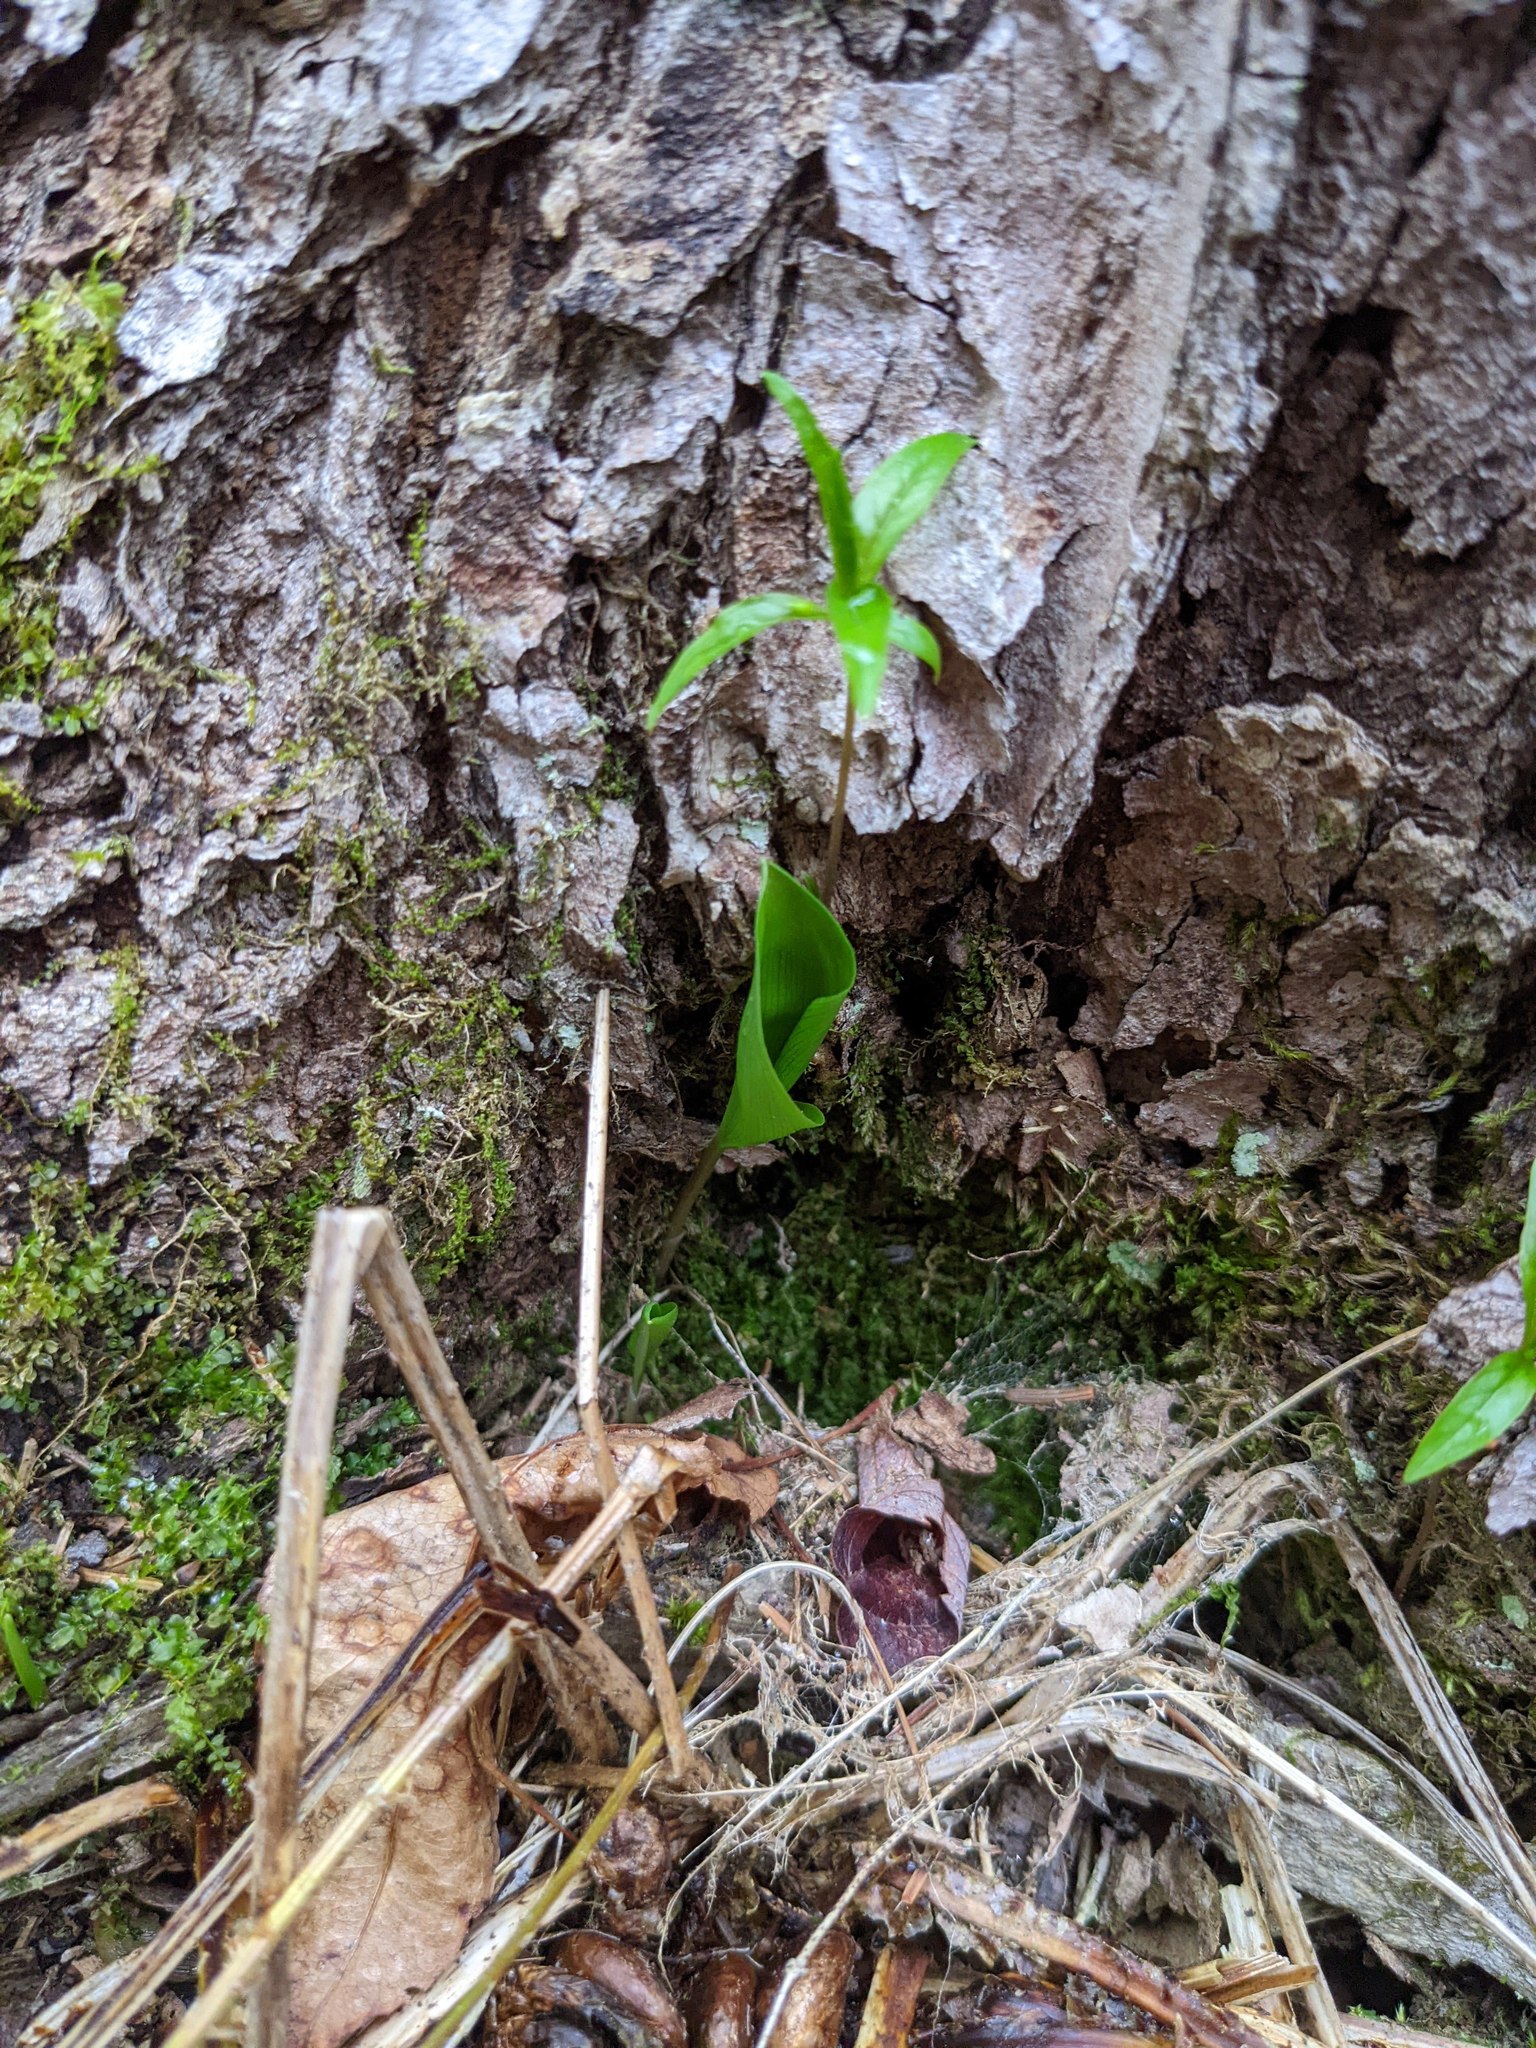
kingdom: Plantae
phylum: Tracheophyta
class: Liliopsida
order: Asparagales
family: Asparagaceae
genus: Maianthemum
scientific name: Maianthemum canadense
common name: False lily-of-the-valley
